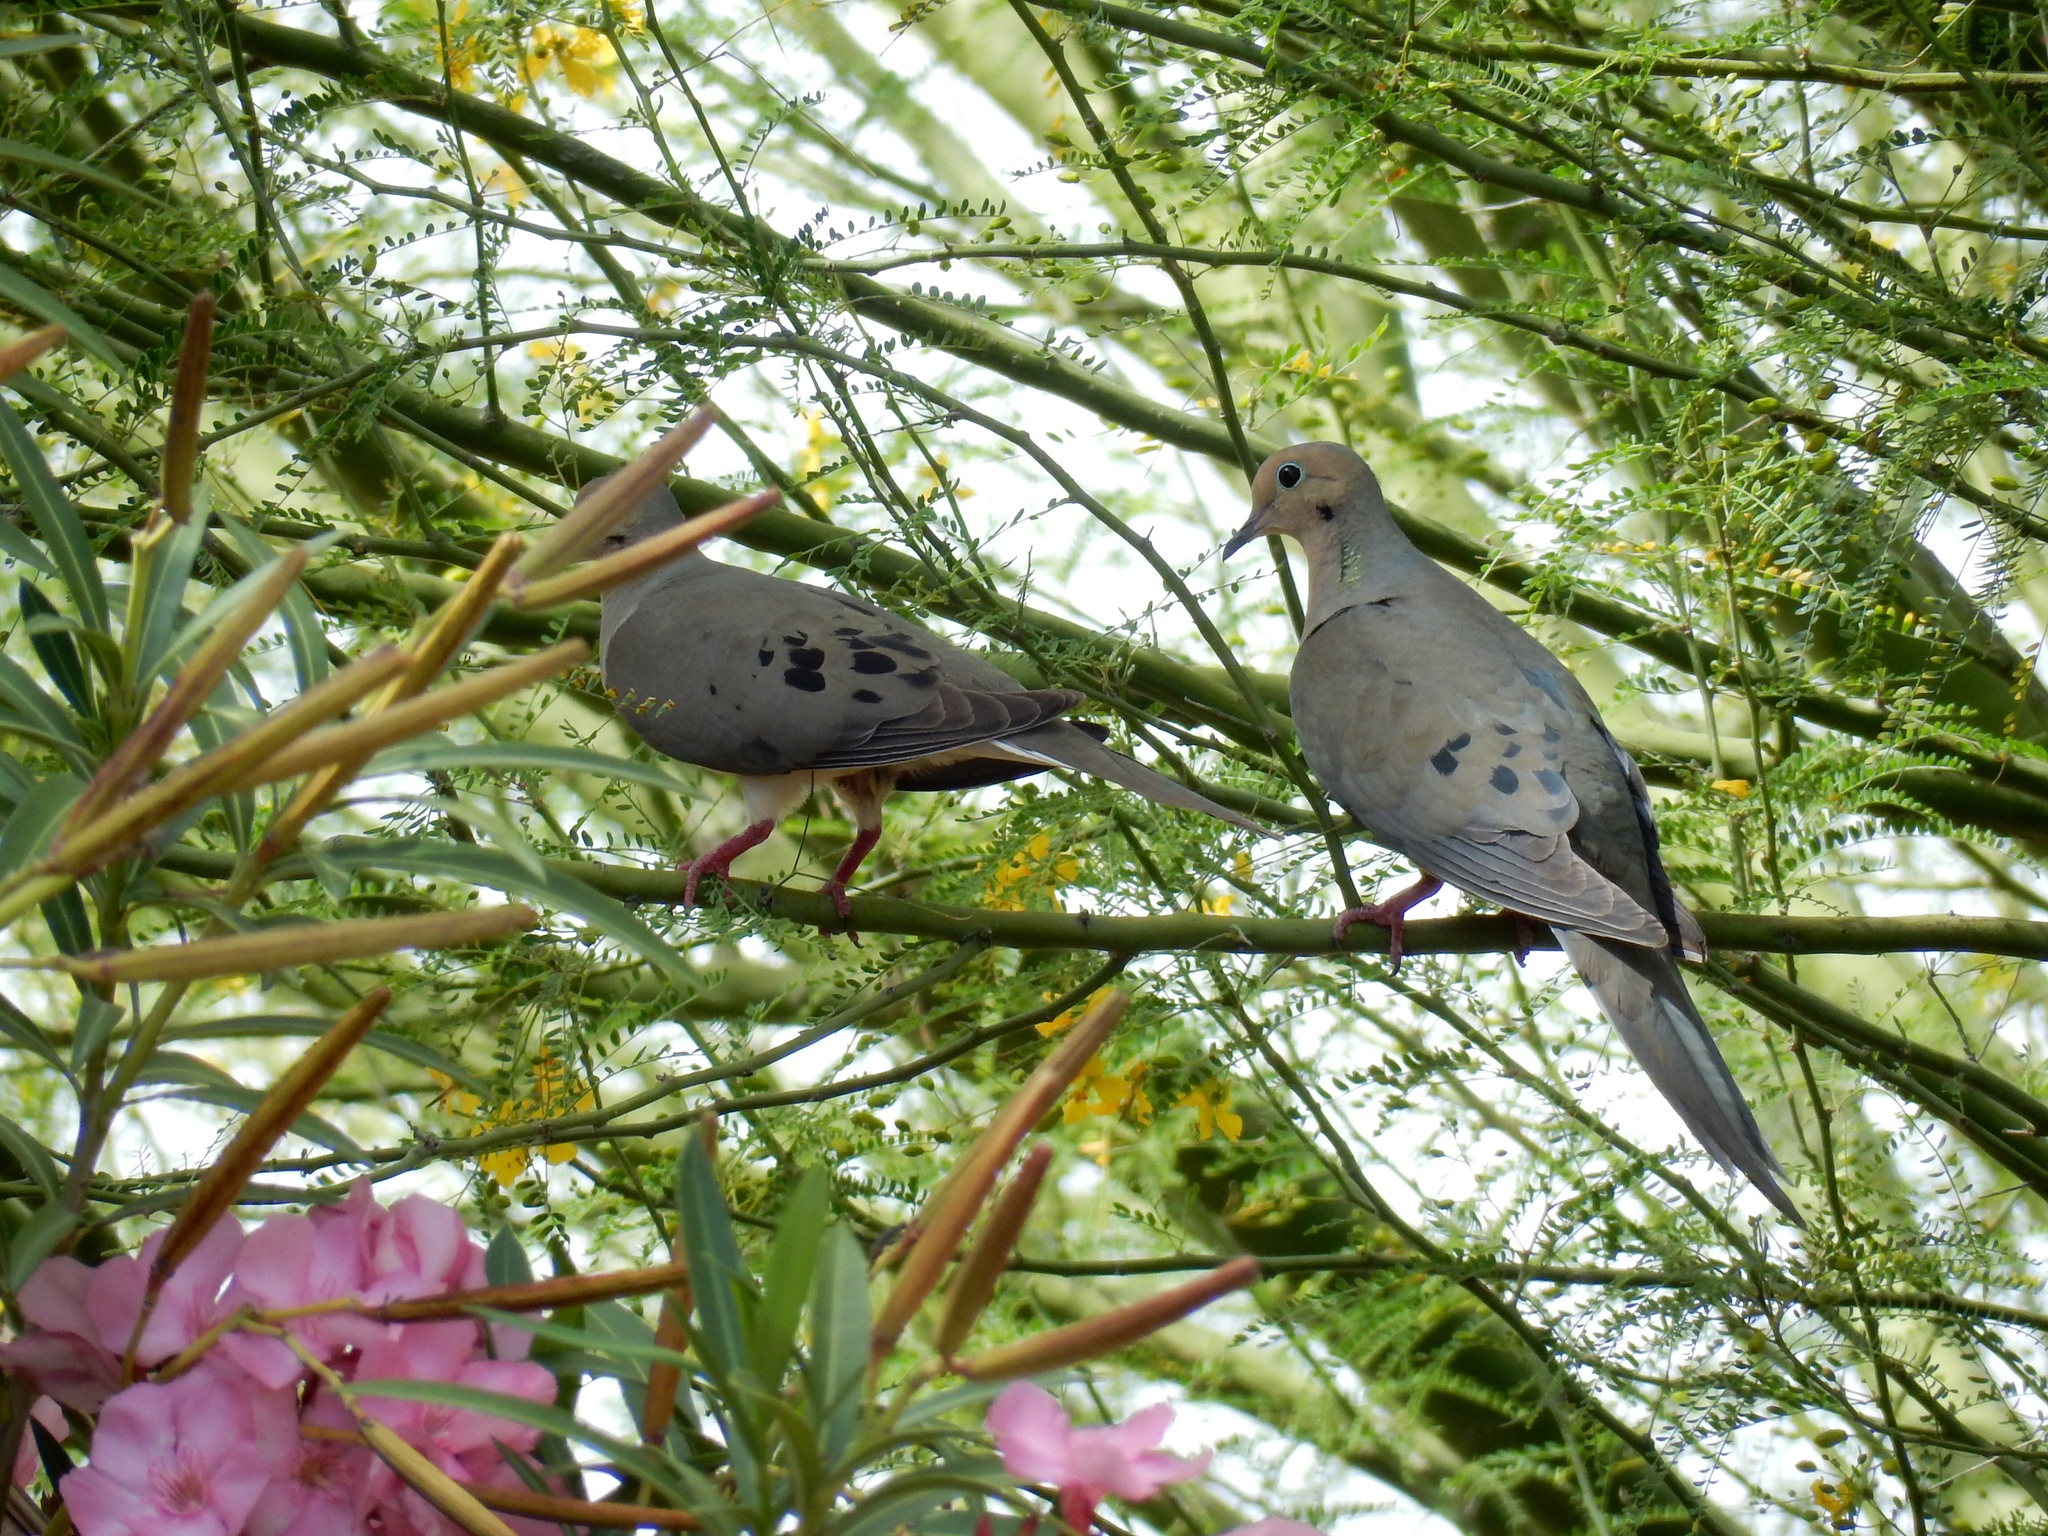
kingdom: Animalia
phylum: Chordata
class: Aves
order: Columbiformes
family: Columbidae
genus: Zenaida
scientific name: Zenaida macroura
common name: Mourning dove
